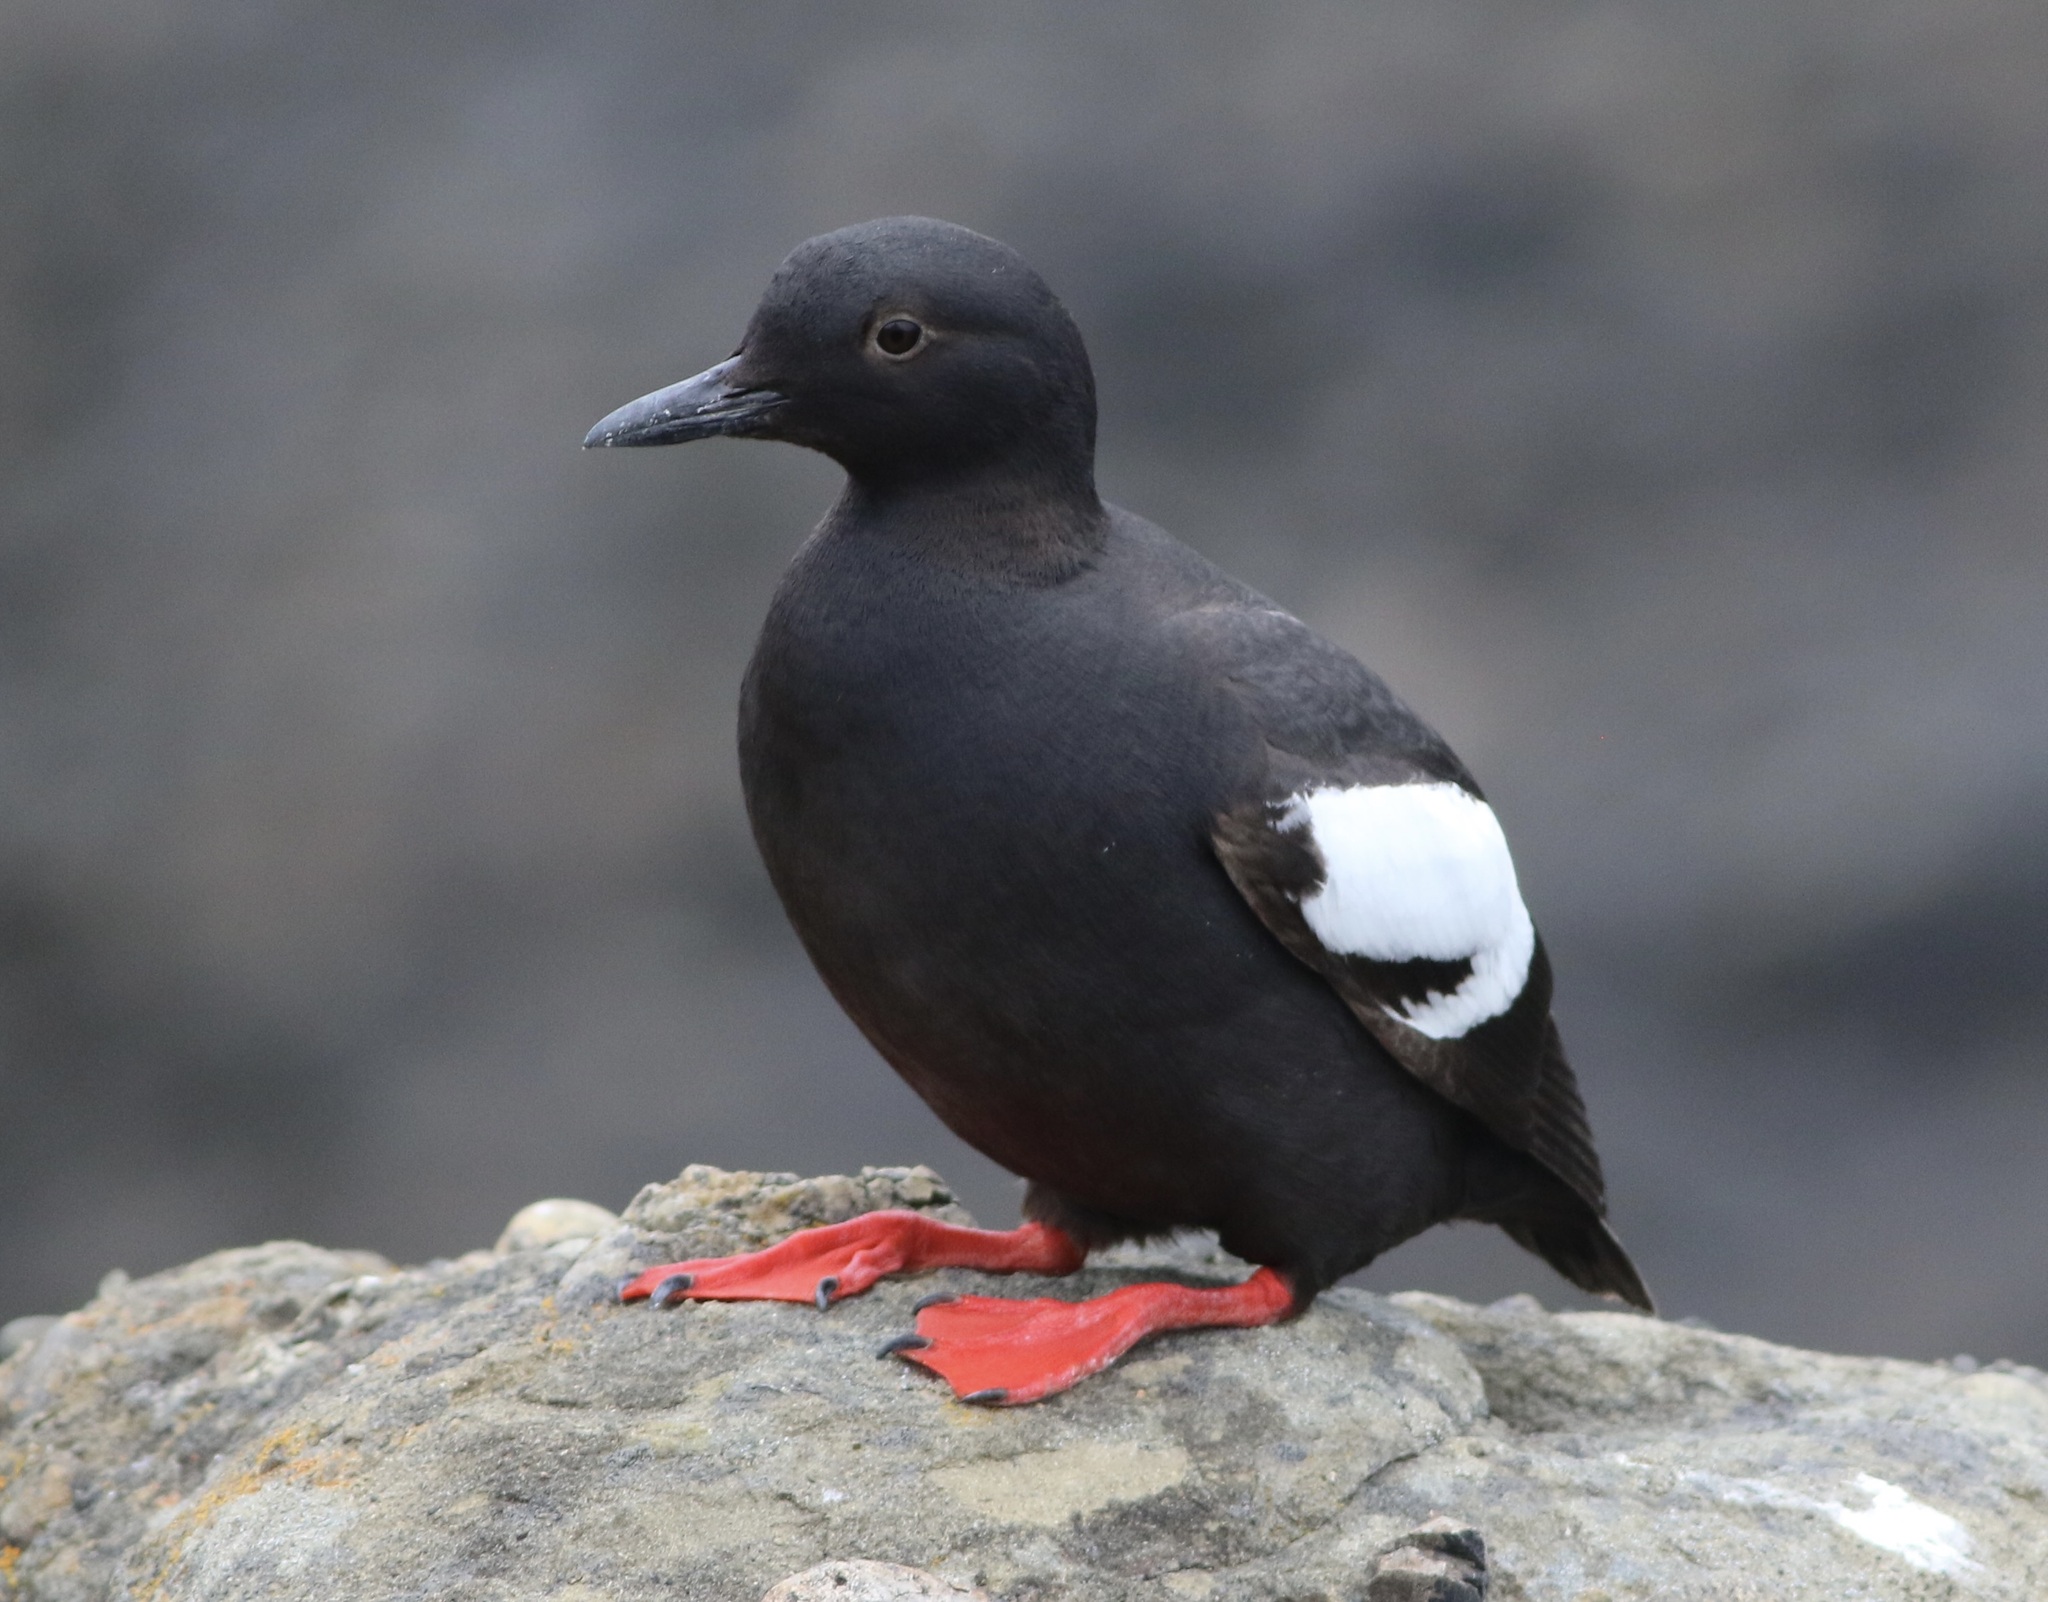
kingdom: Animalia
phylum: Chordata
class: Aves
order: Charadriiformes
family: Alcidae
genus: Cepphus
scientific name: Cepphus columba
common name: Pigeon guillemot
